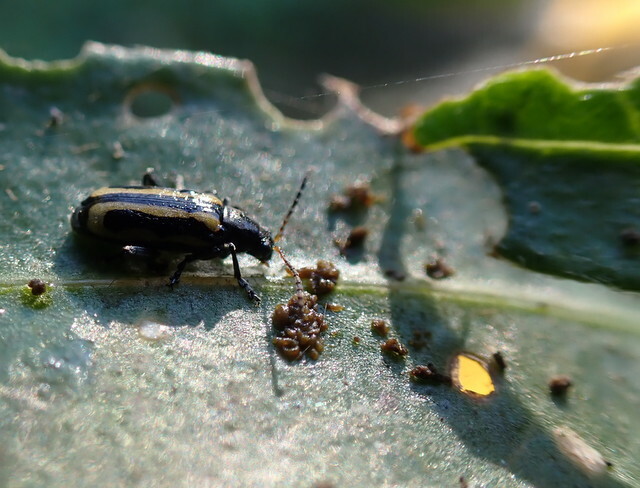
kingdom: Animalia
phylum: Arthropoda
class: Insecta
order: Coleoptera
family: Chrysomelidae
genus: Agasicles
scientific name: Agasicles hygrophila
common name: Alligatorweed flea beetle
